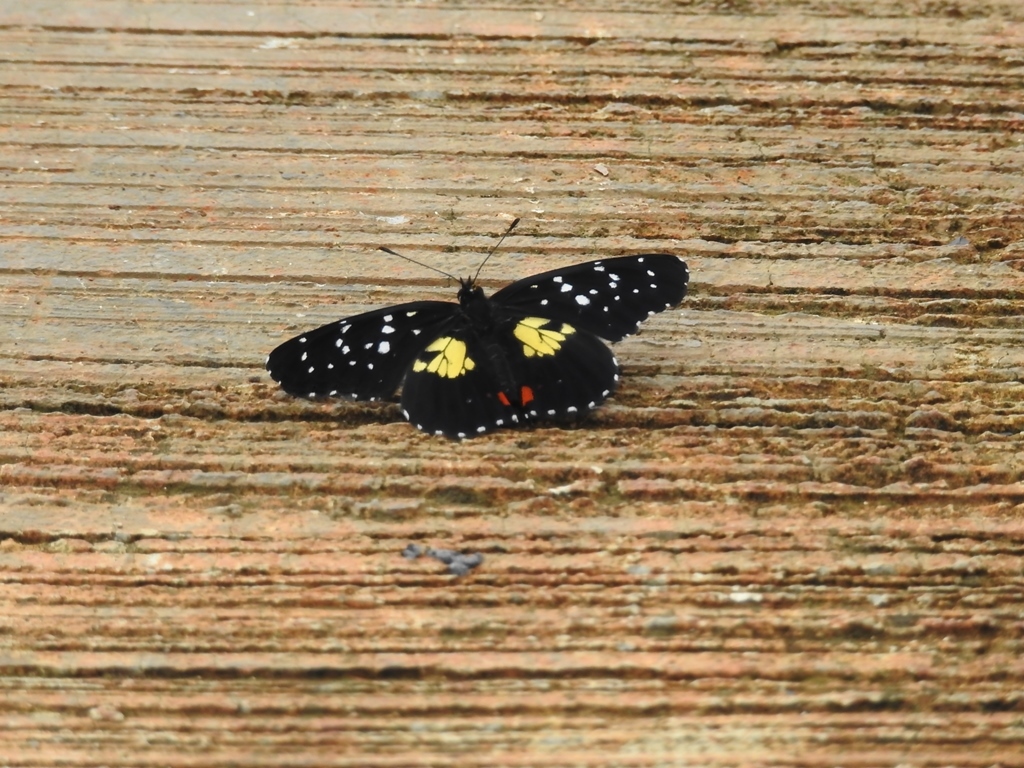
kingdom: Animalia
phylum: Arthropoda
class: Insecta
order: Lepidoptera
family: Nymphalidae
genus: Chlosyne
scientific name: Chlosyne erodyle
